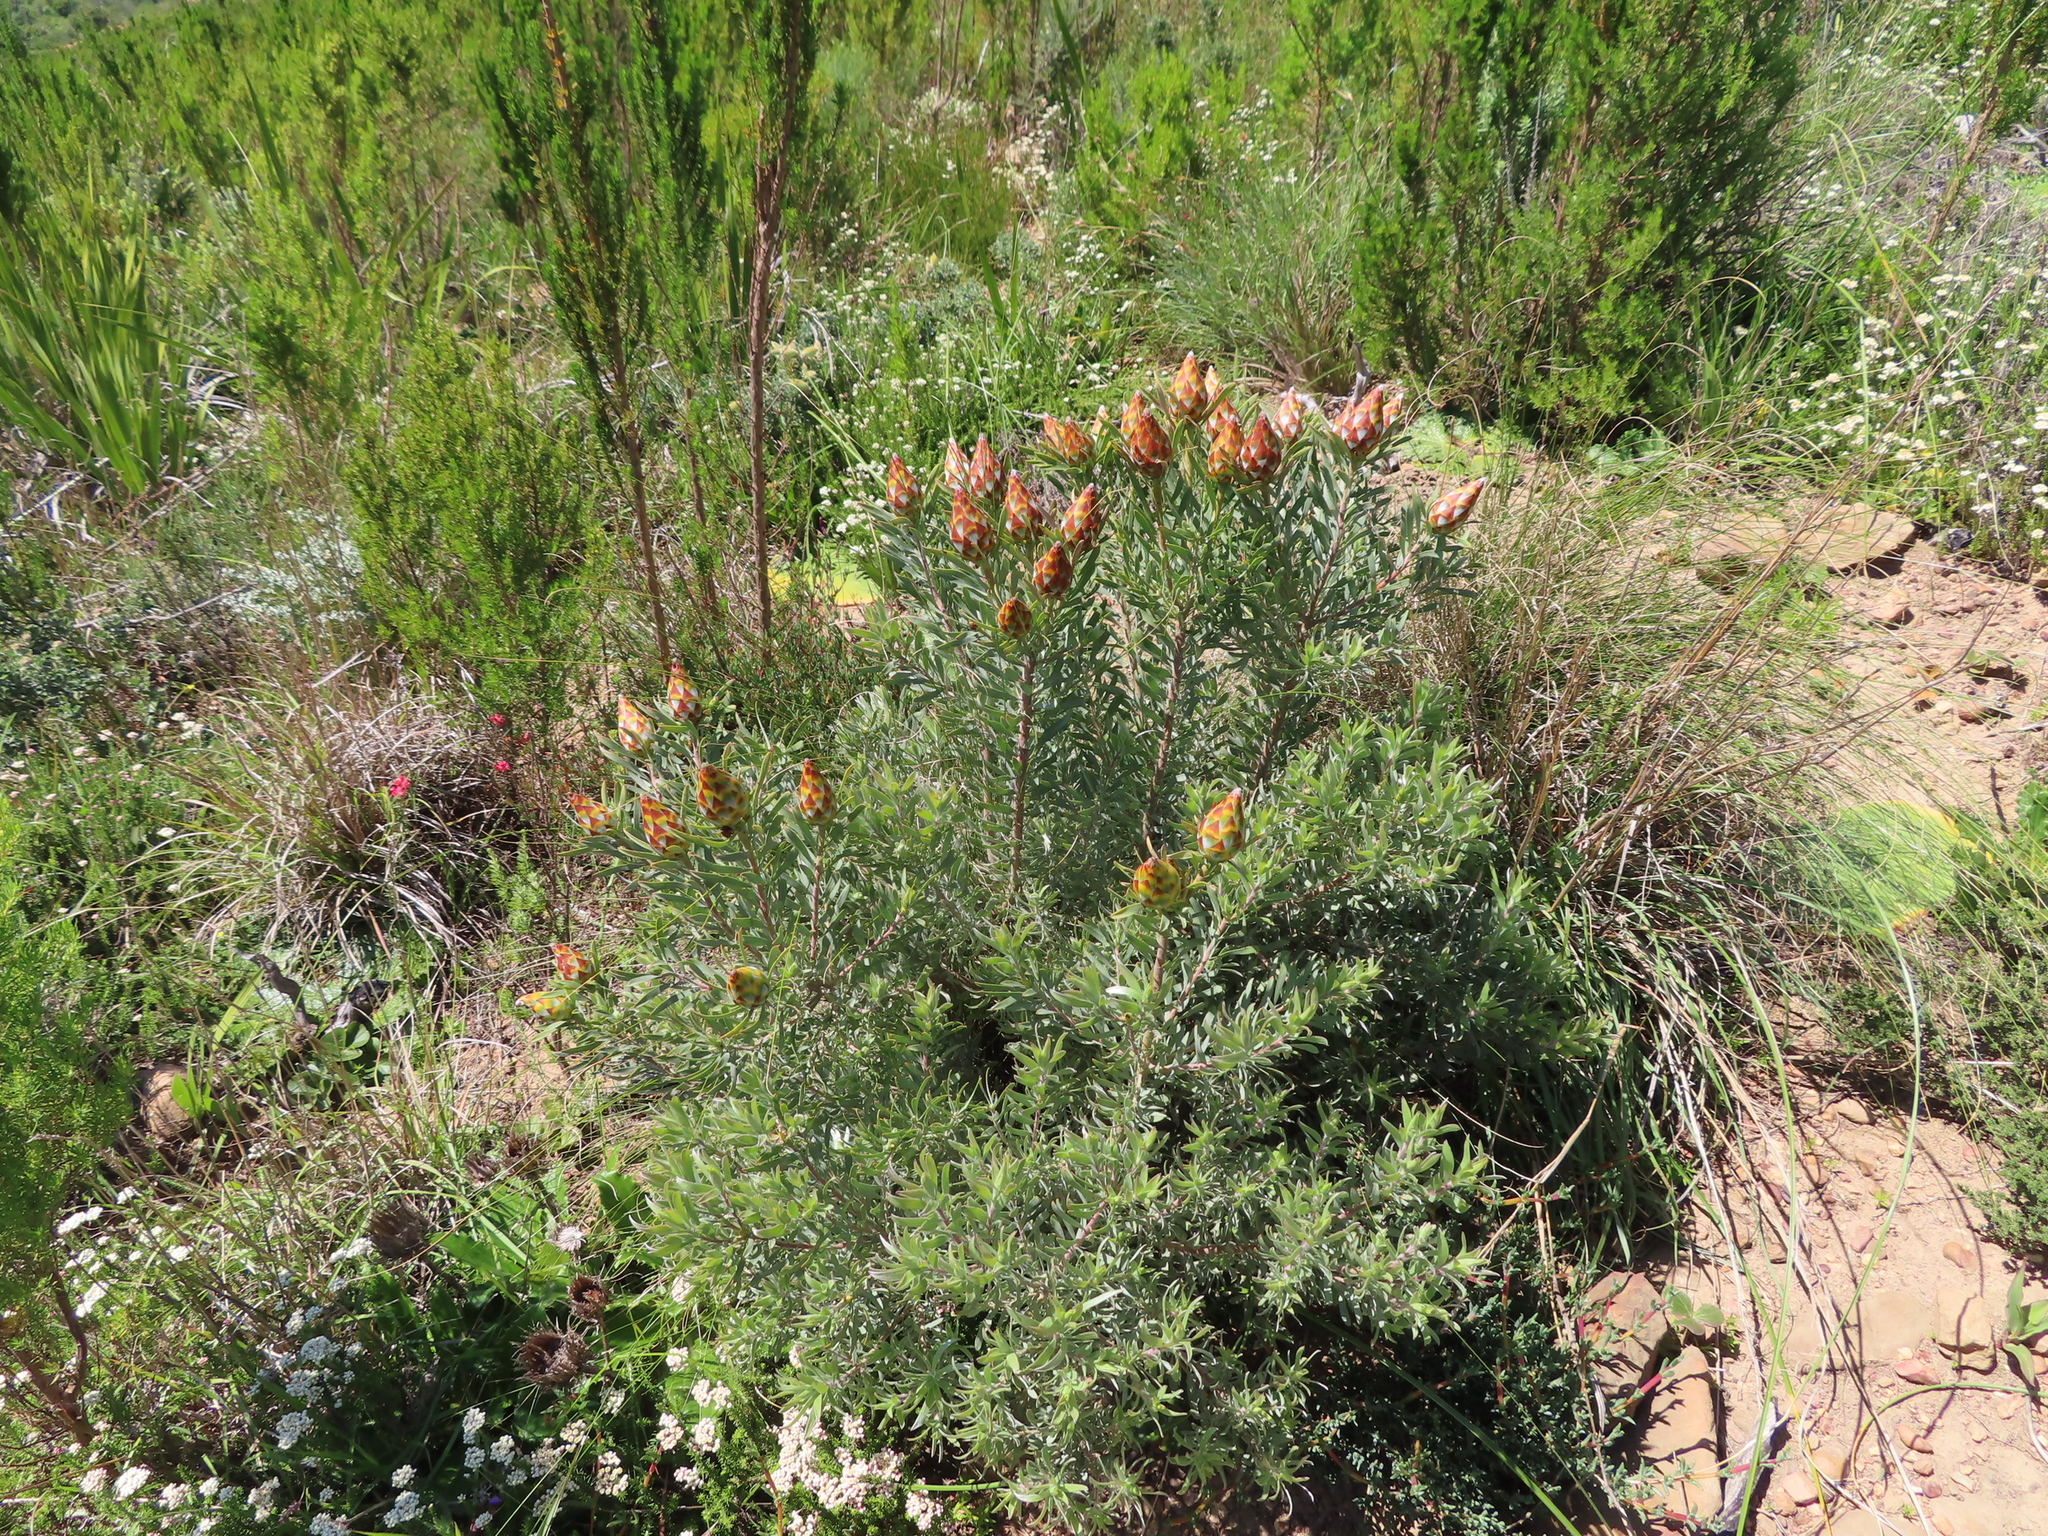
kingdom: Plantae
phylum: Tracheophyta
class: Magnoliopsida
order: Proteales
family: Proteaceae
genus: Leucadendron
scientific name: Leucadendron rubrum
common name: Spinning top
